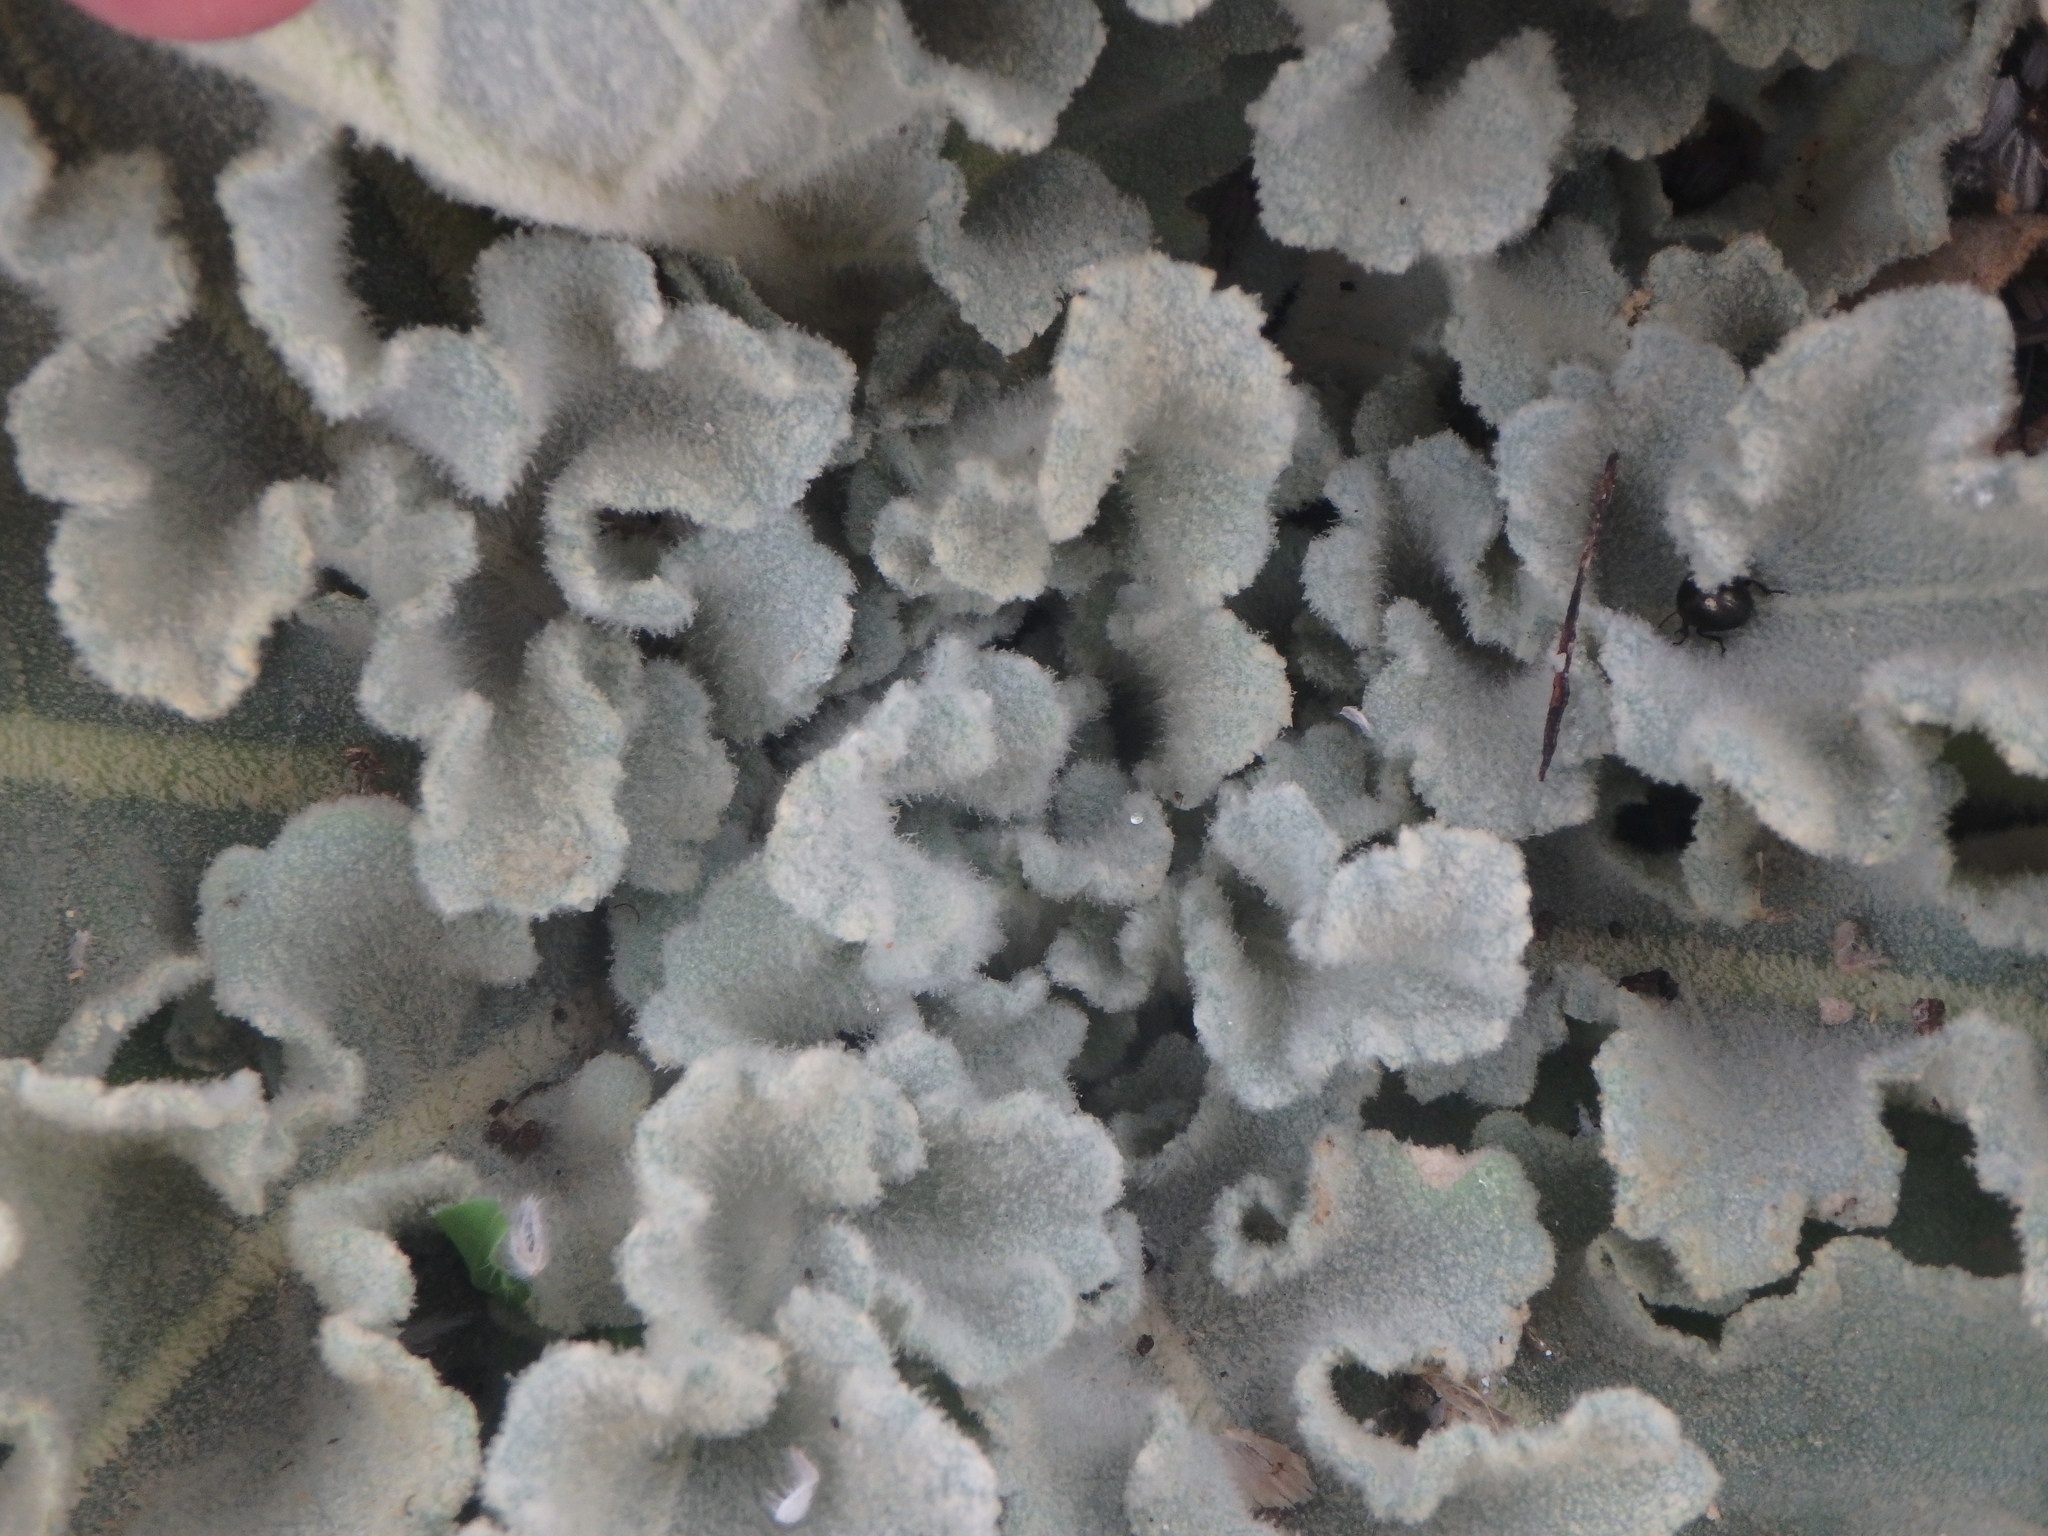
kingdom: Plantae
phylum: Tracheophyta
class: Magnoliopsida
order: Lamiales
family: Scrophulariaceae
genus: Verbascum
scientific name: Verbascum sinuatum
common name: Wavyleaf mullein
